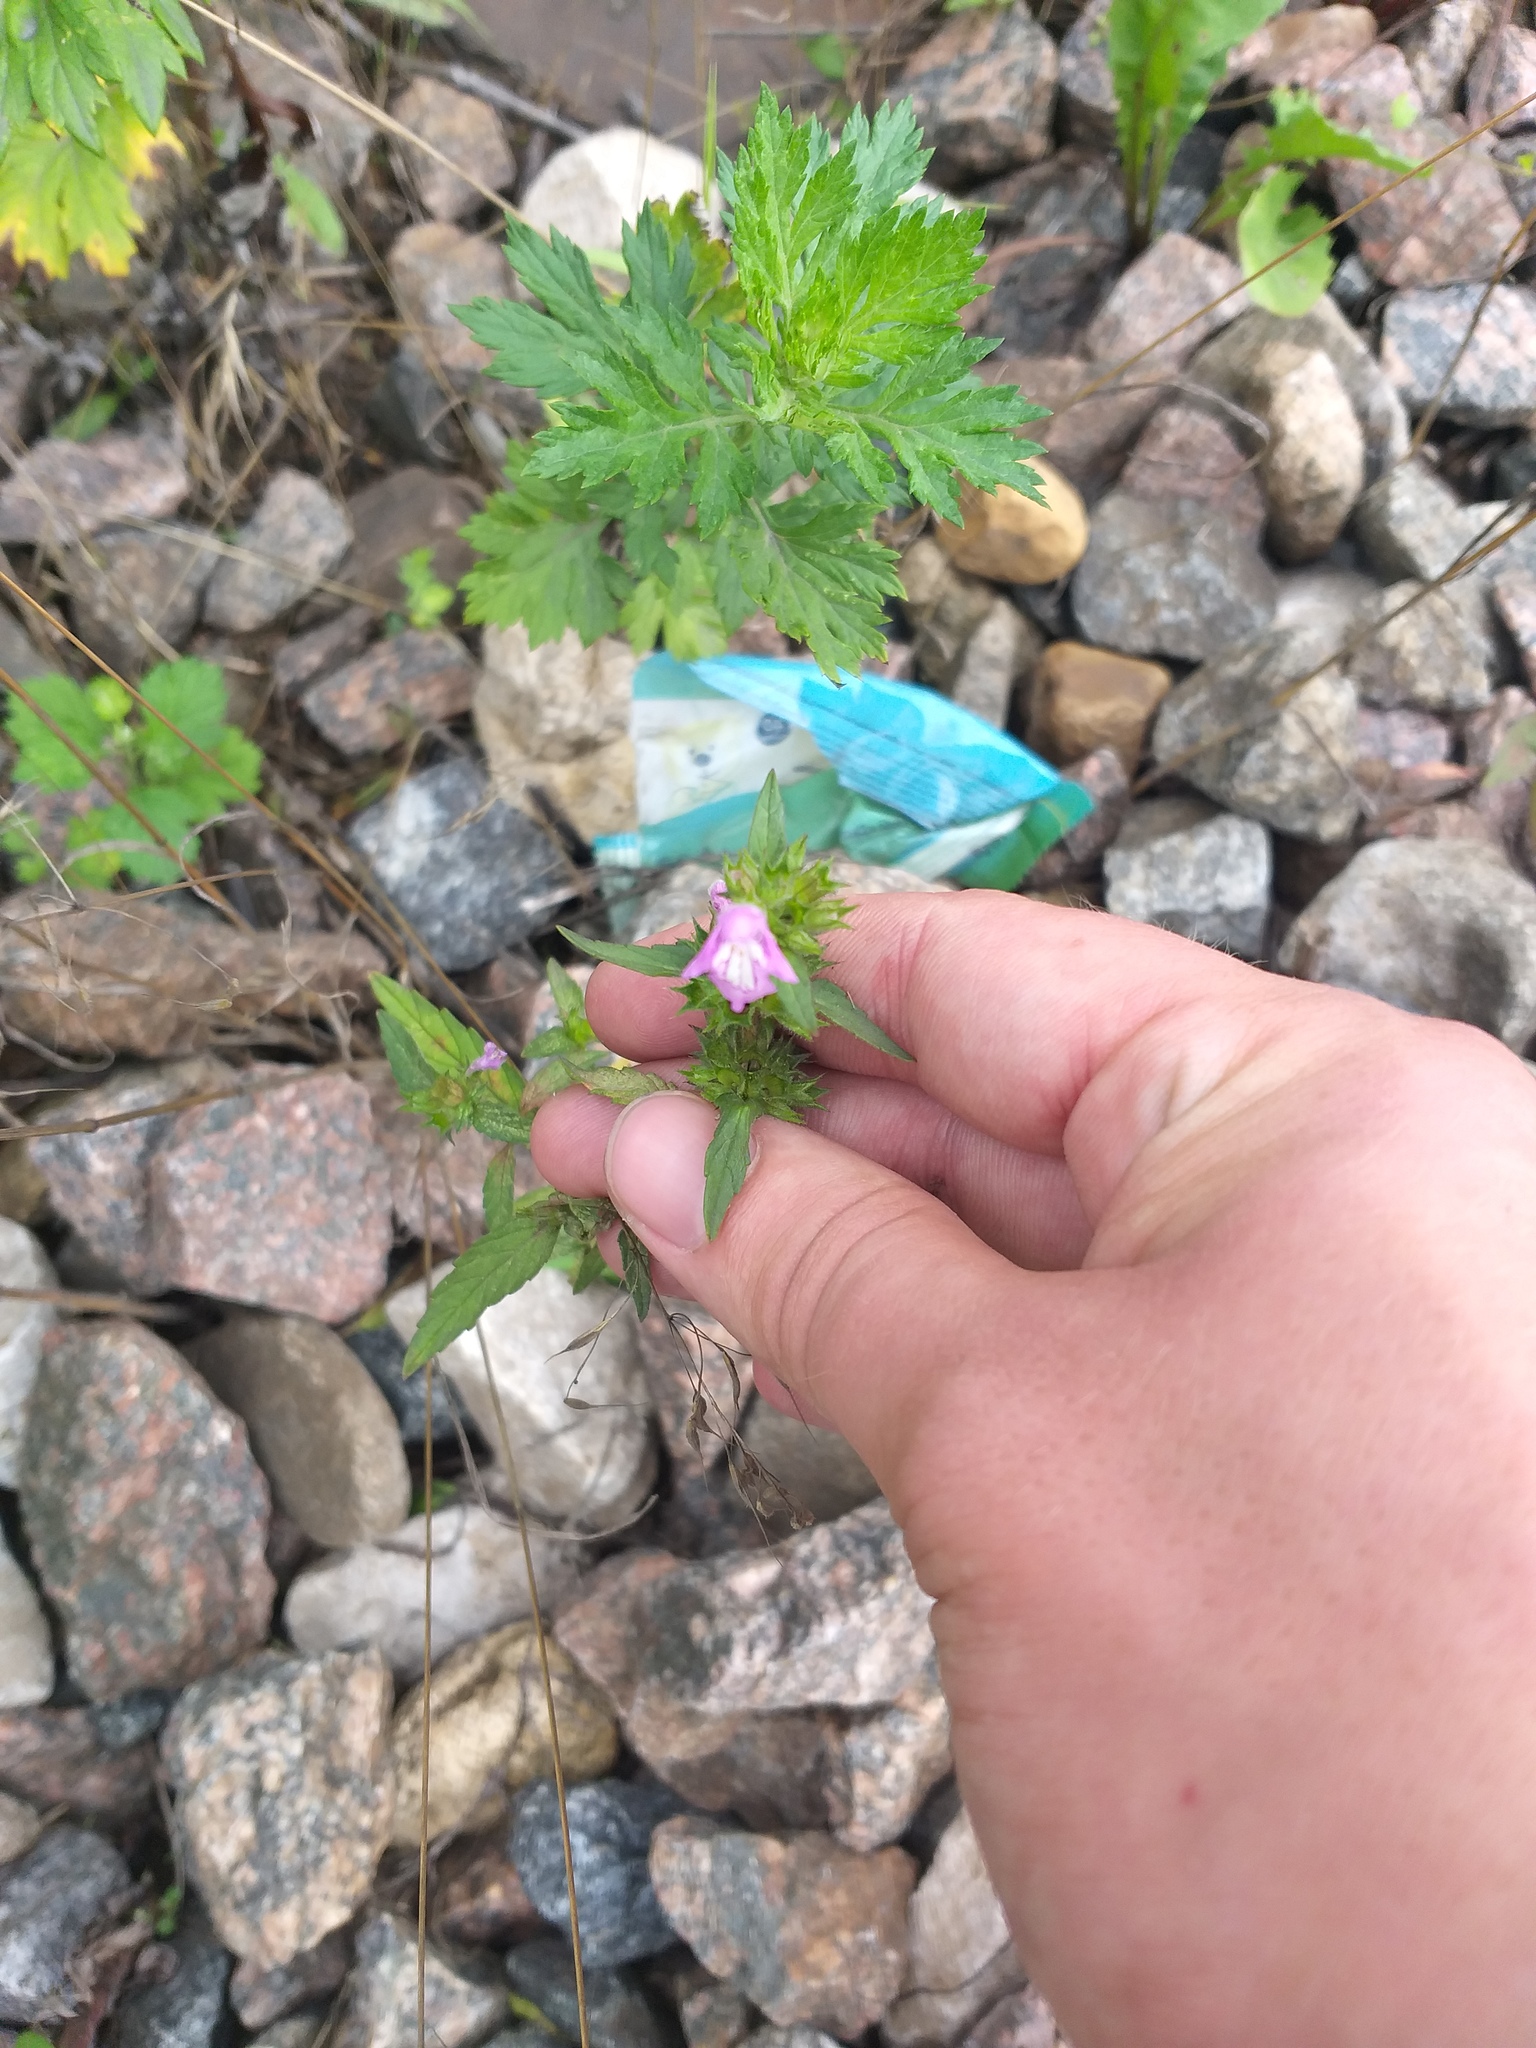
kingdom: Plantae
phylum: Tracheophyta
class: Magnoliopsida
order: Lamiales
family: Lamiaceae
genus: Galeopsis
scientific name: Galeopsis ladanum
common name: Broad-leaved hemp-nettle
